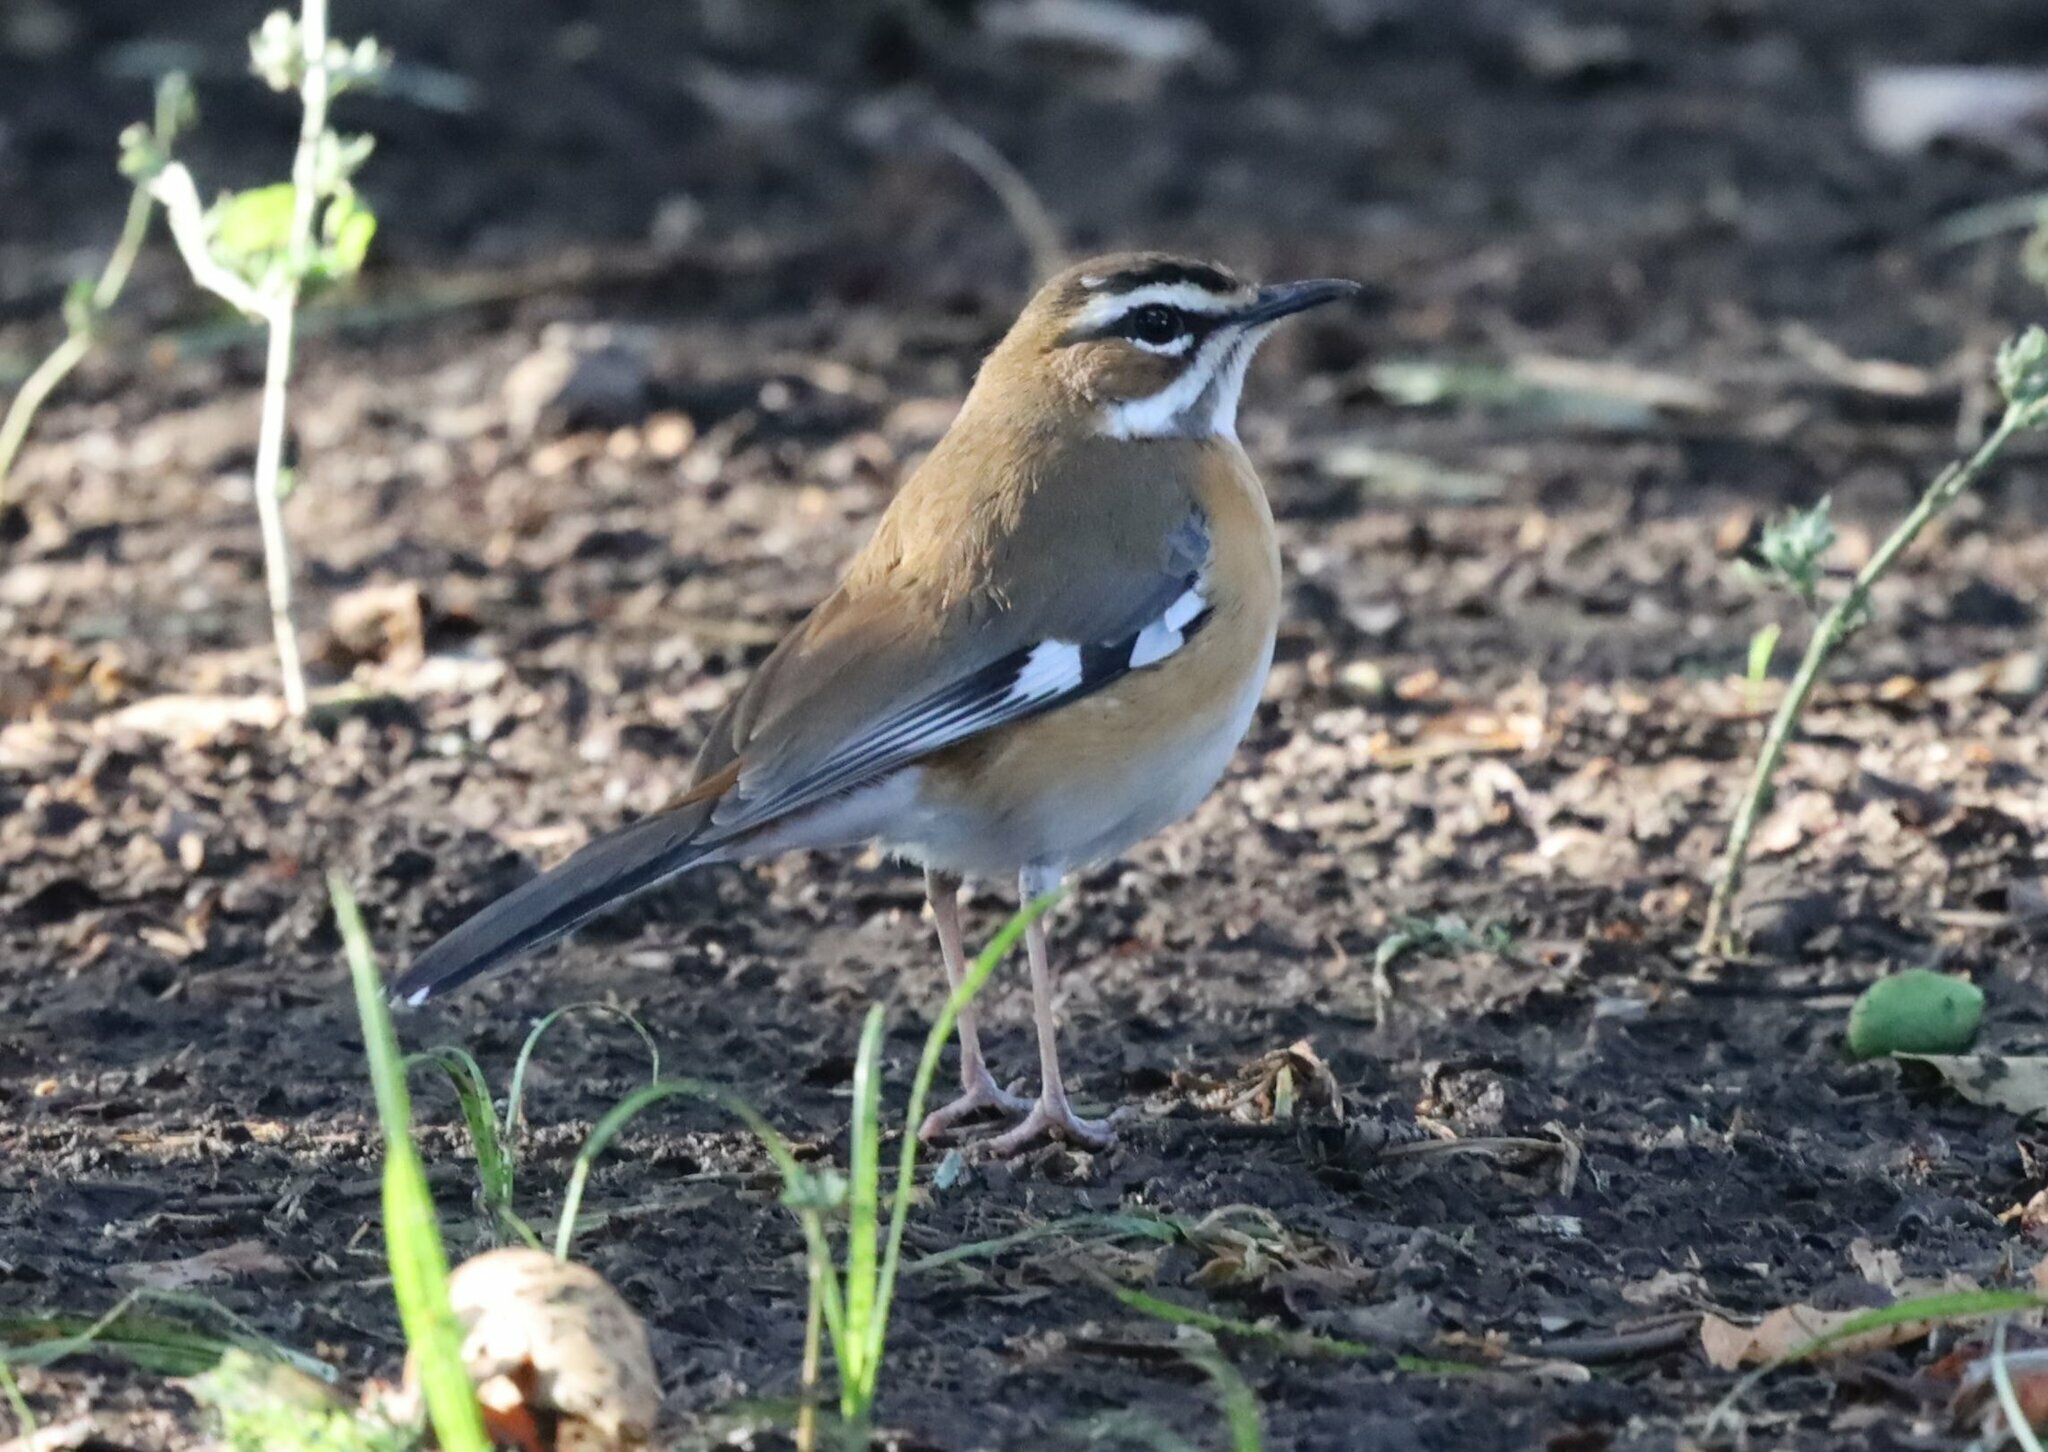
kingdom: Animalia
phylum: Chordata
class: Aves
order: Passeriformes
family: Muscicapidae
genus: Erythropygia
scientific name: Erythropygia quadrivirgata
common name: Bearded scrub robin
